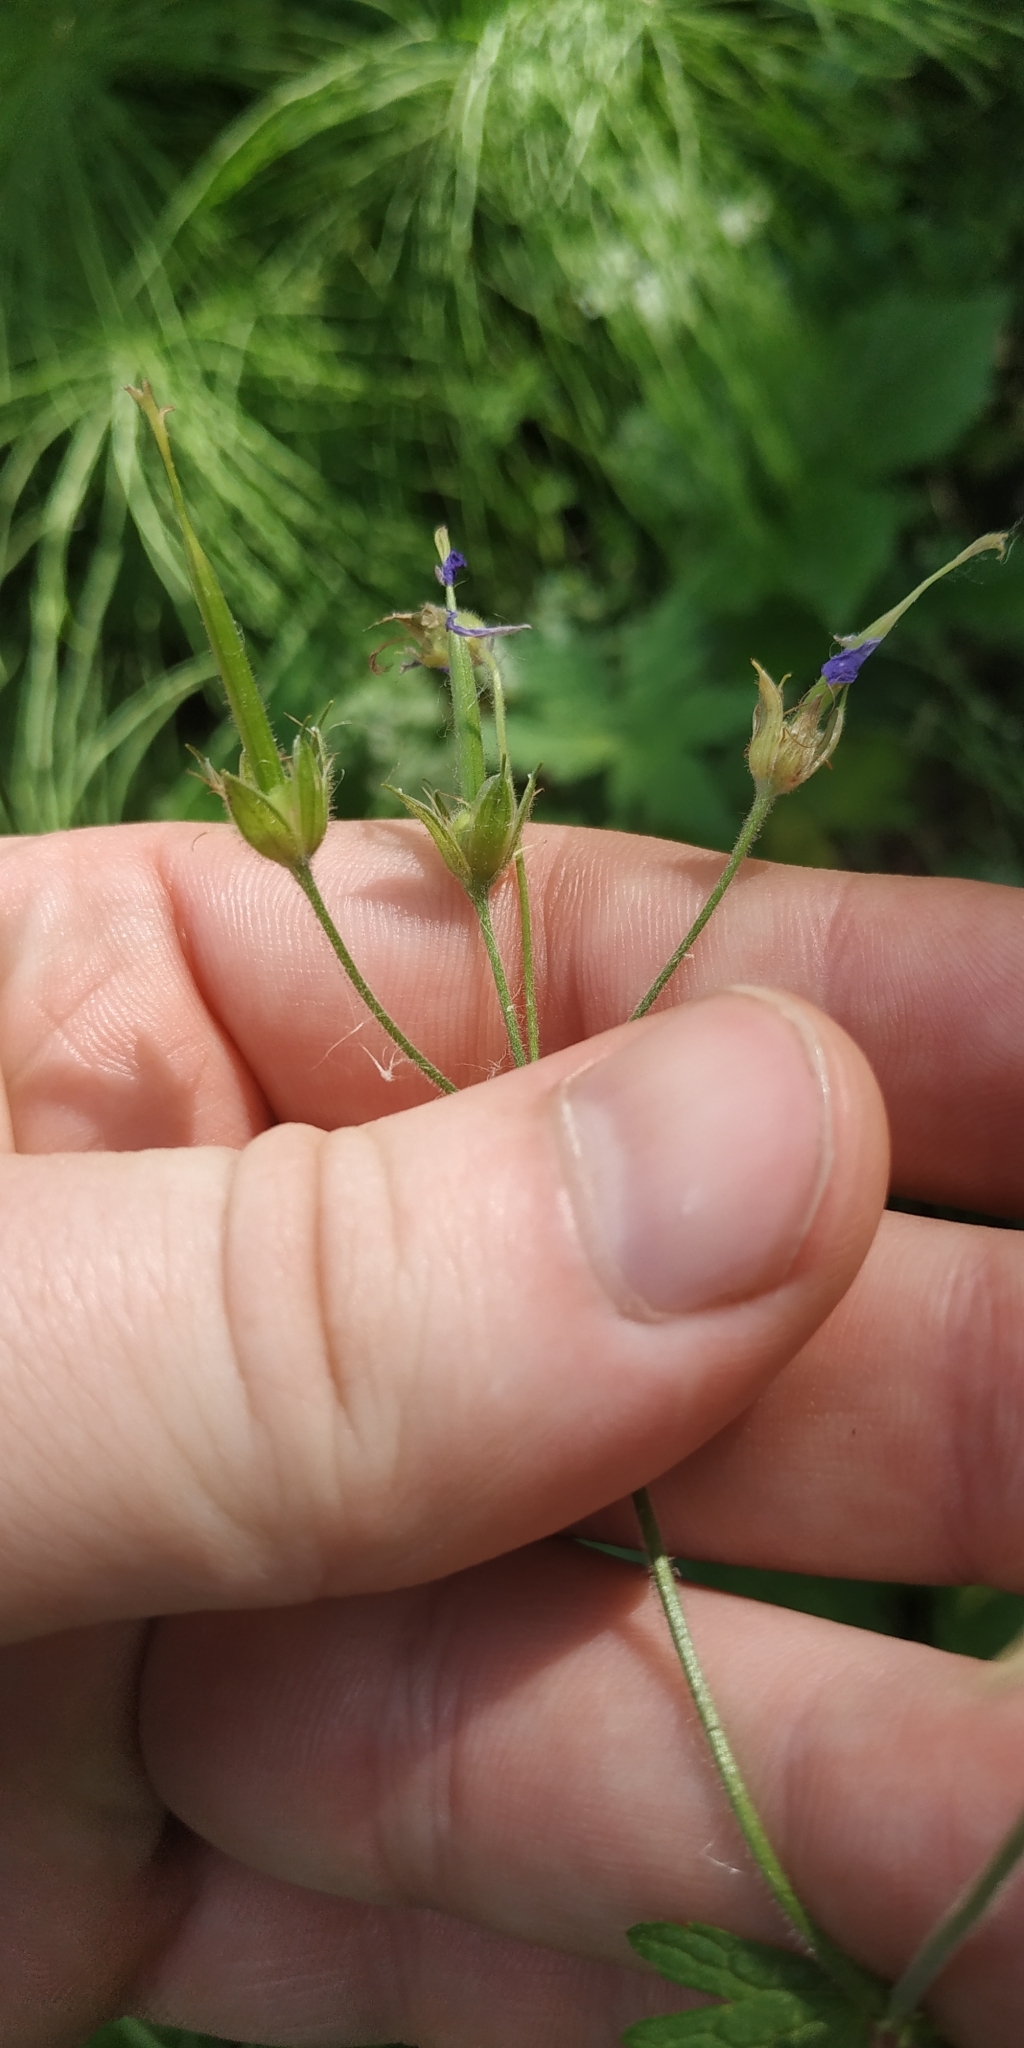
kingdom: Plantae
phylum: Tracheophyta
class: Magnoliopsida
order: Geraniales
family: Geraniaceae
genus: Geranium
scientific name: Geranium sylvaticum
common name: Wood crane's-bill
